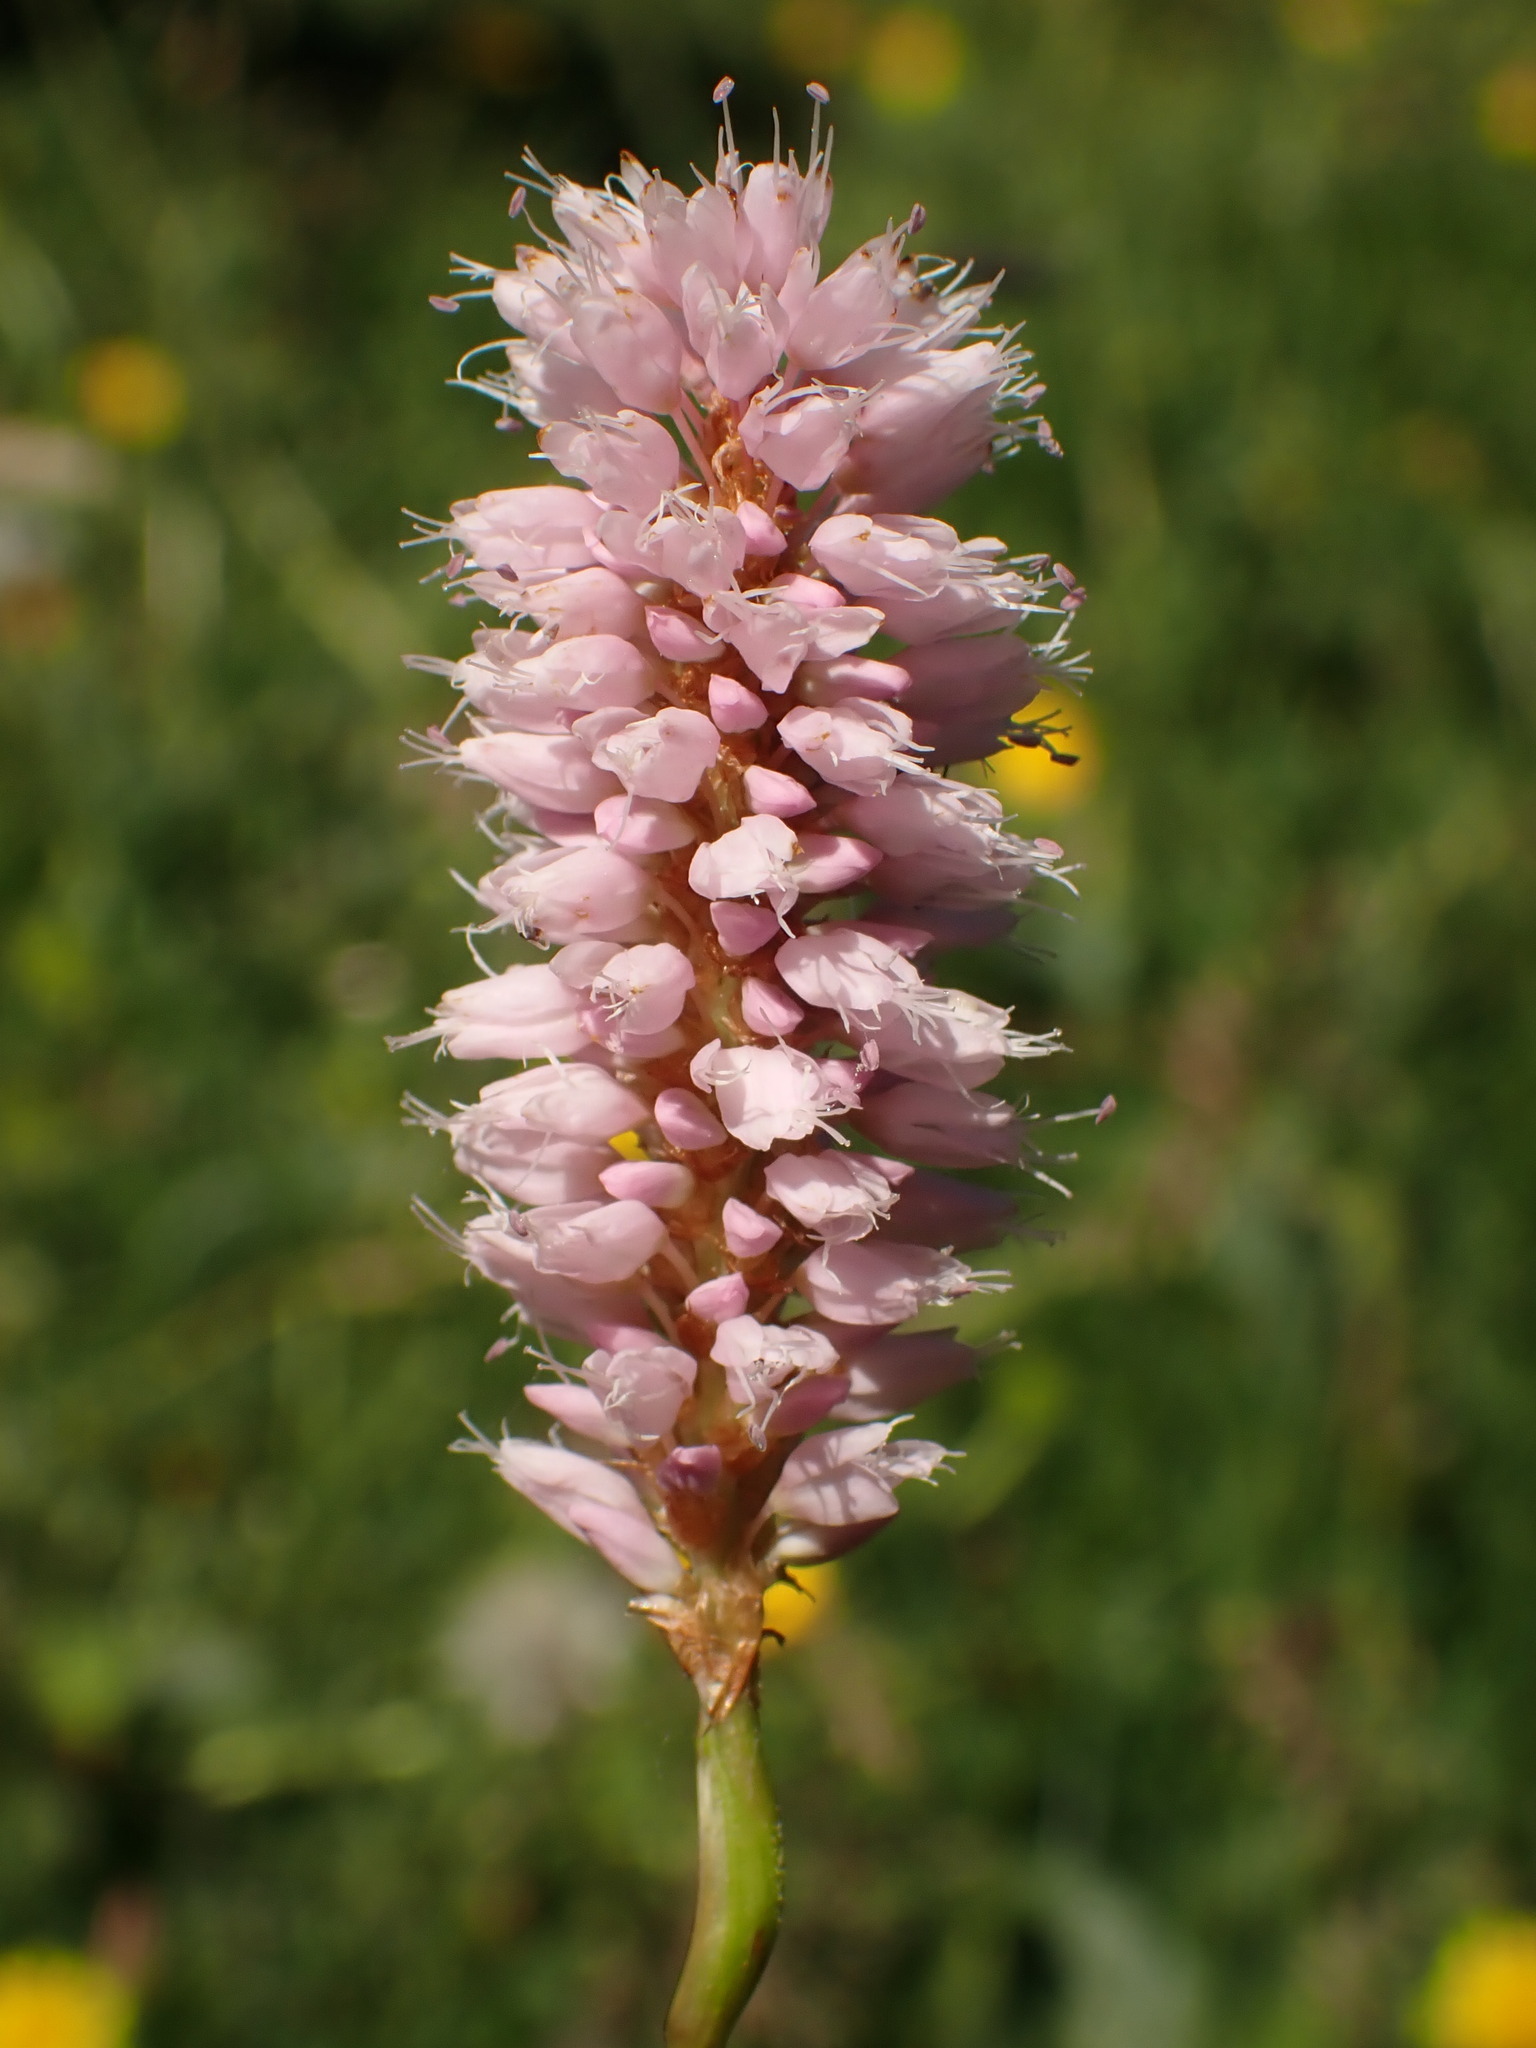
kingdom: Plantae
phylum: Tracheophyta
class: Magnoliopsida
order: Caryophyllales
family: Polygonaceae
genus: Bistorta
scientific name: Bistorta officinalis
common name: Common bistort
